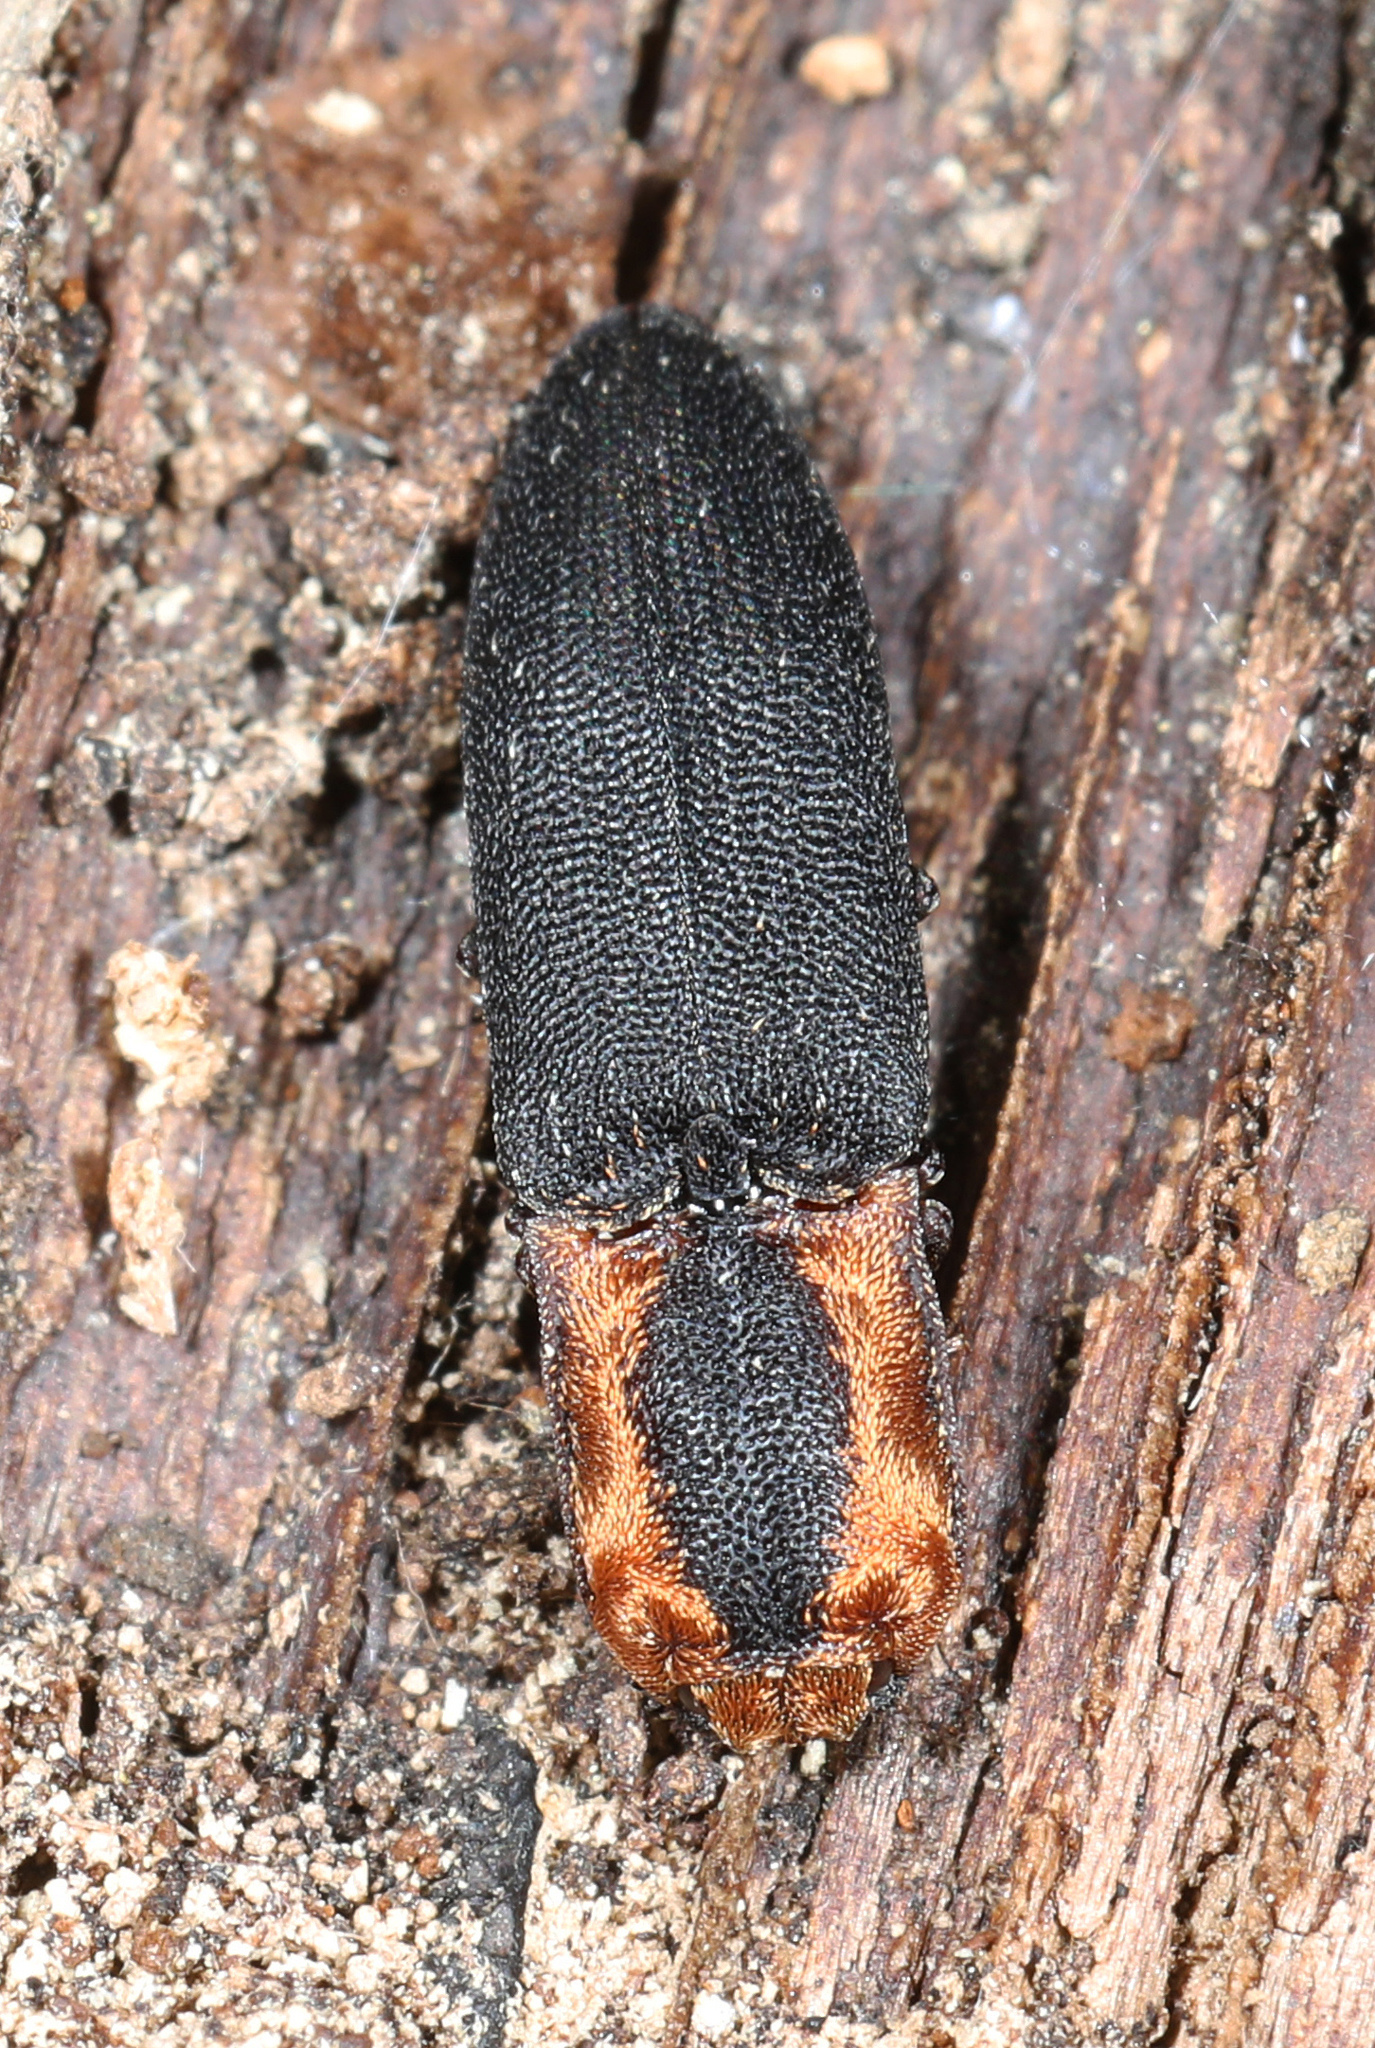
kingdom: Animalia
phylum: Arthropoda
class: Insecta
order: Coleoptera
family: Elateridae
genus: Lacon
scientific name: Lacon discoideus
